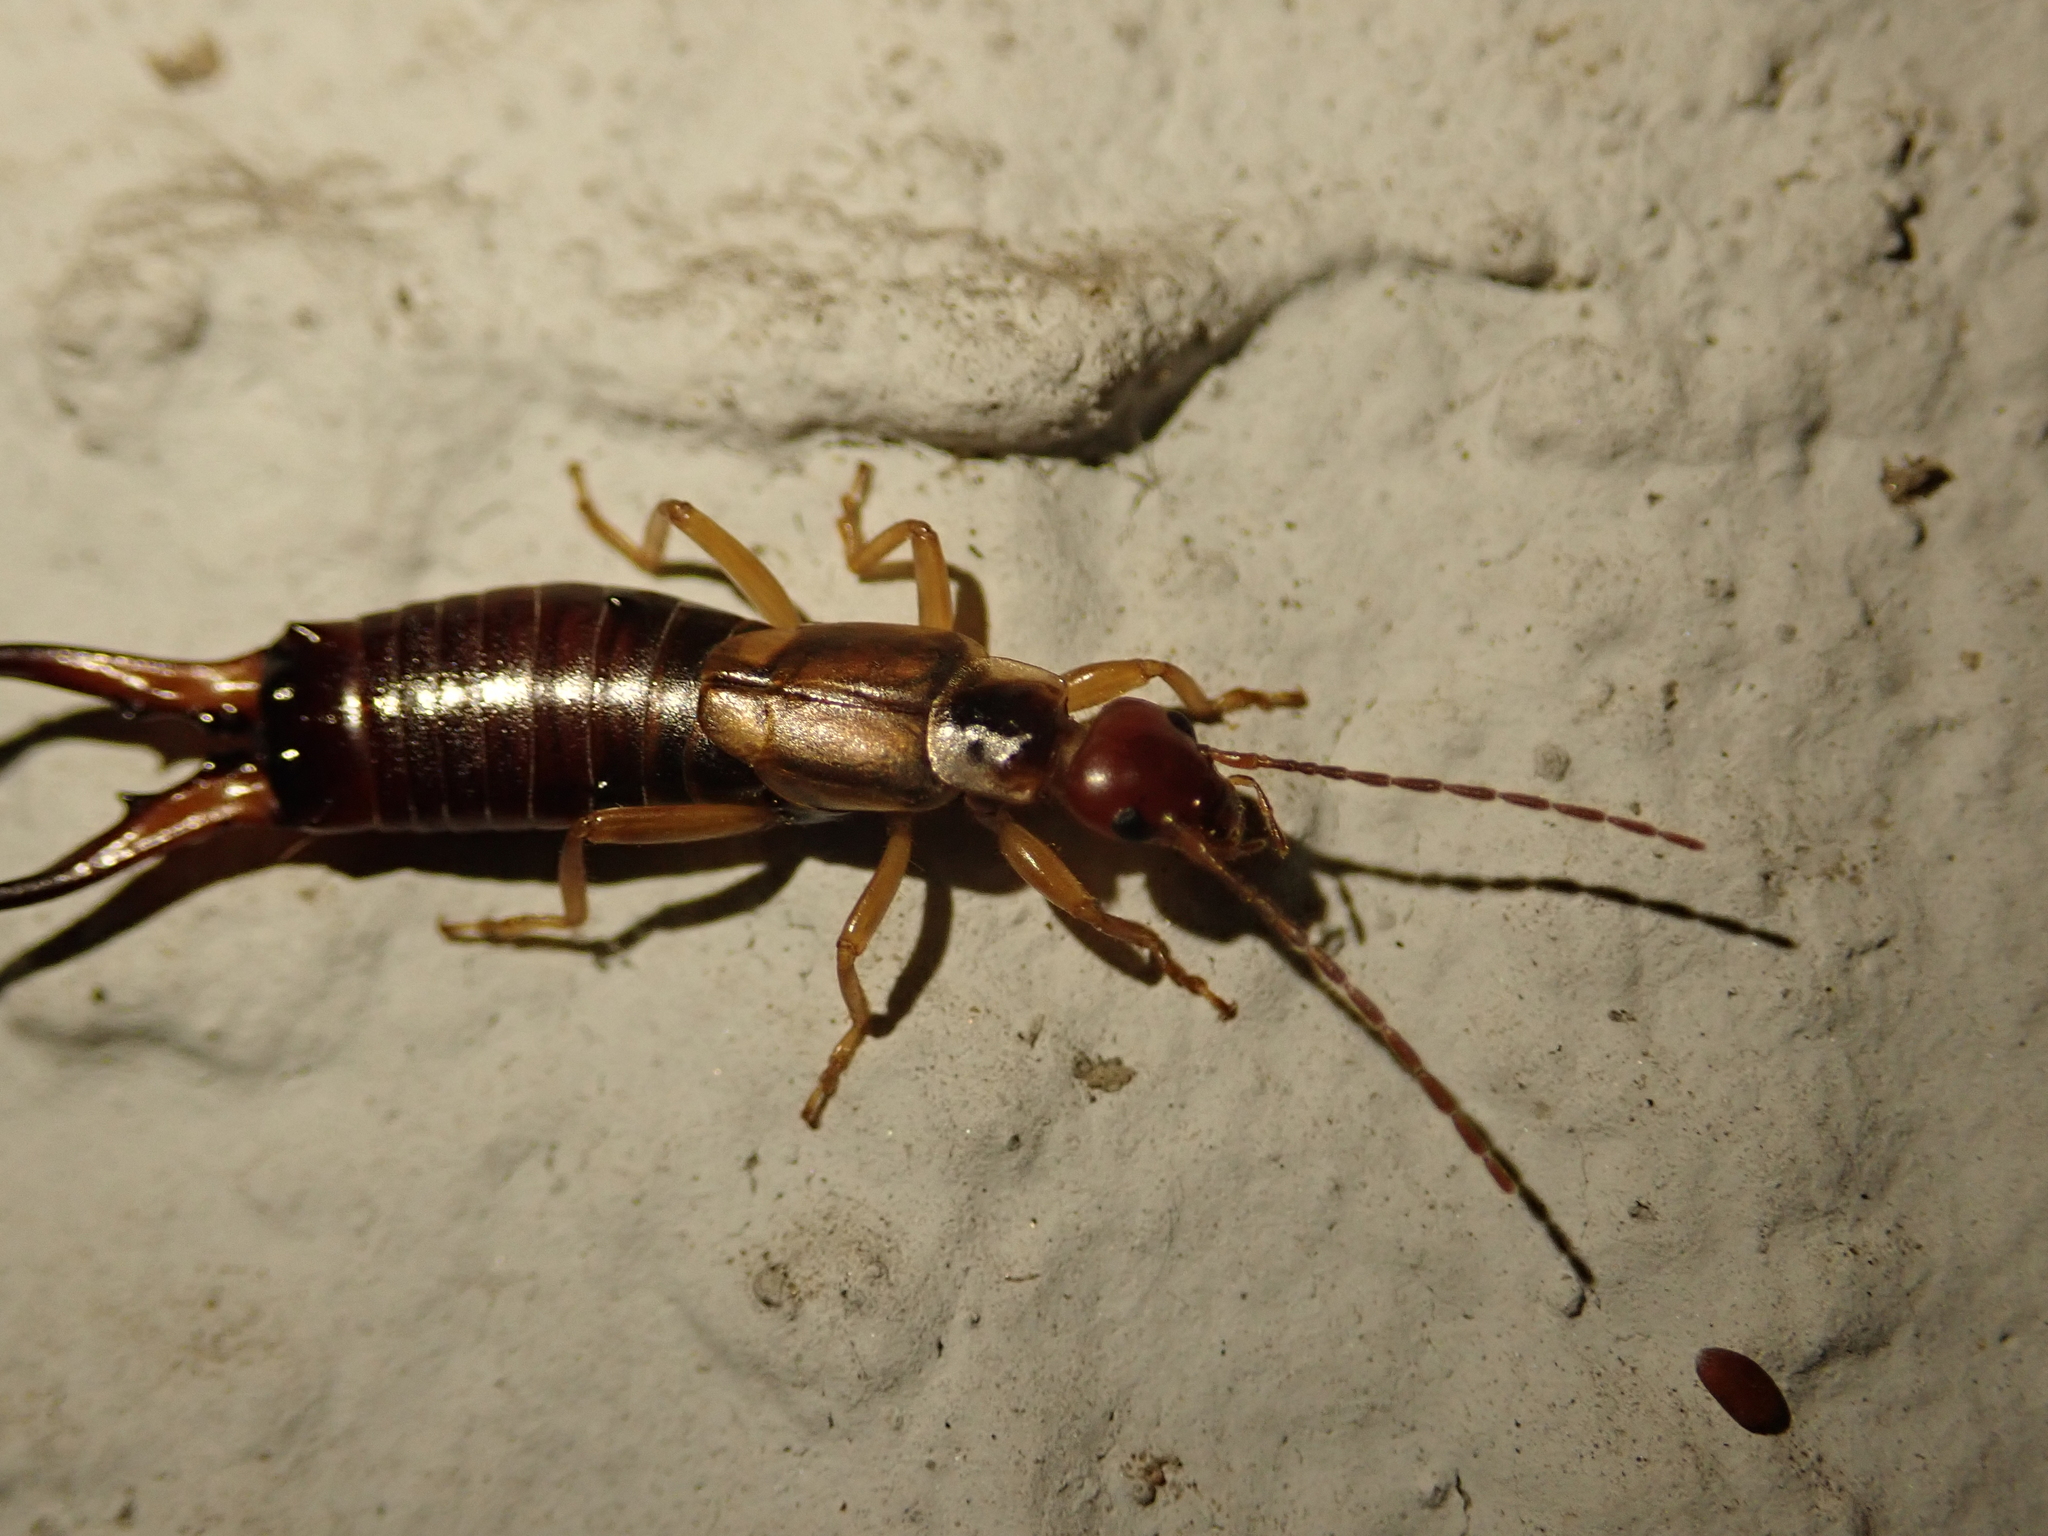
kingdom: Animalia
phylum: Arthropoda
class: Insecta
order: Dermaptera
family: Forficulidae
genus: Forficula
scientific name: Forficula
